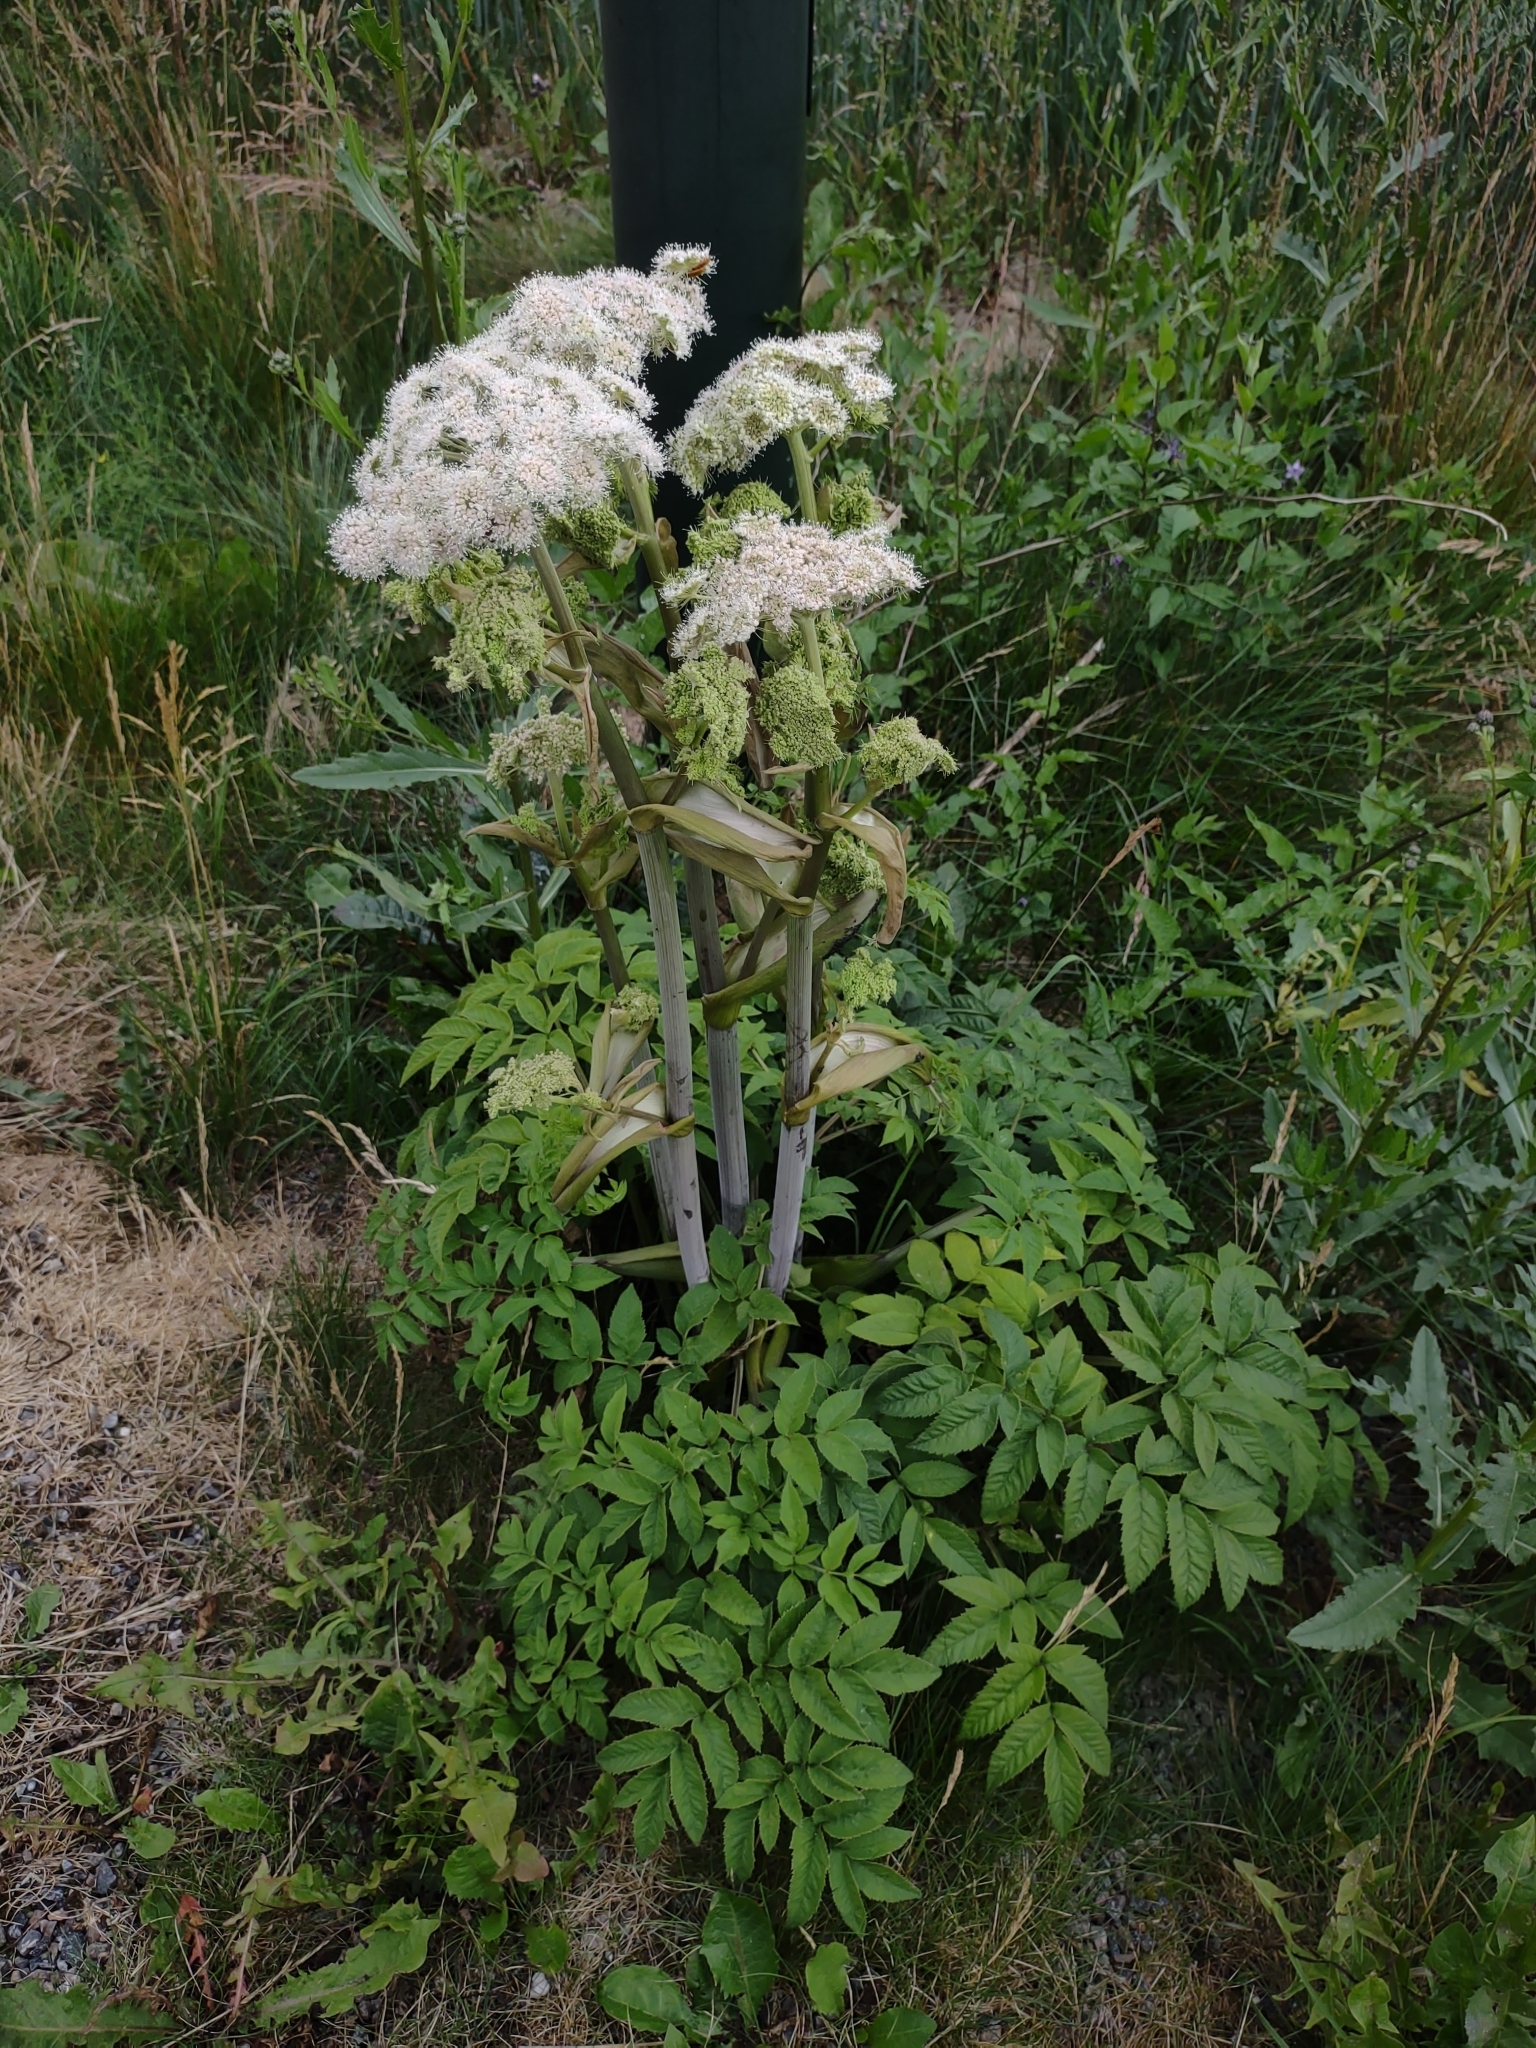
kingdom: Plantae
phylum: Tracheophyta
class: Magnoliopsida
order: Apiales
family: Apiaceae
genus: Angelica
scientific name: Angelica sylvestris
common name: Wild angelica
